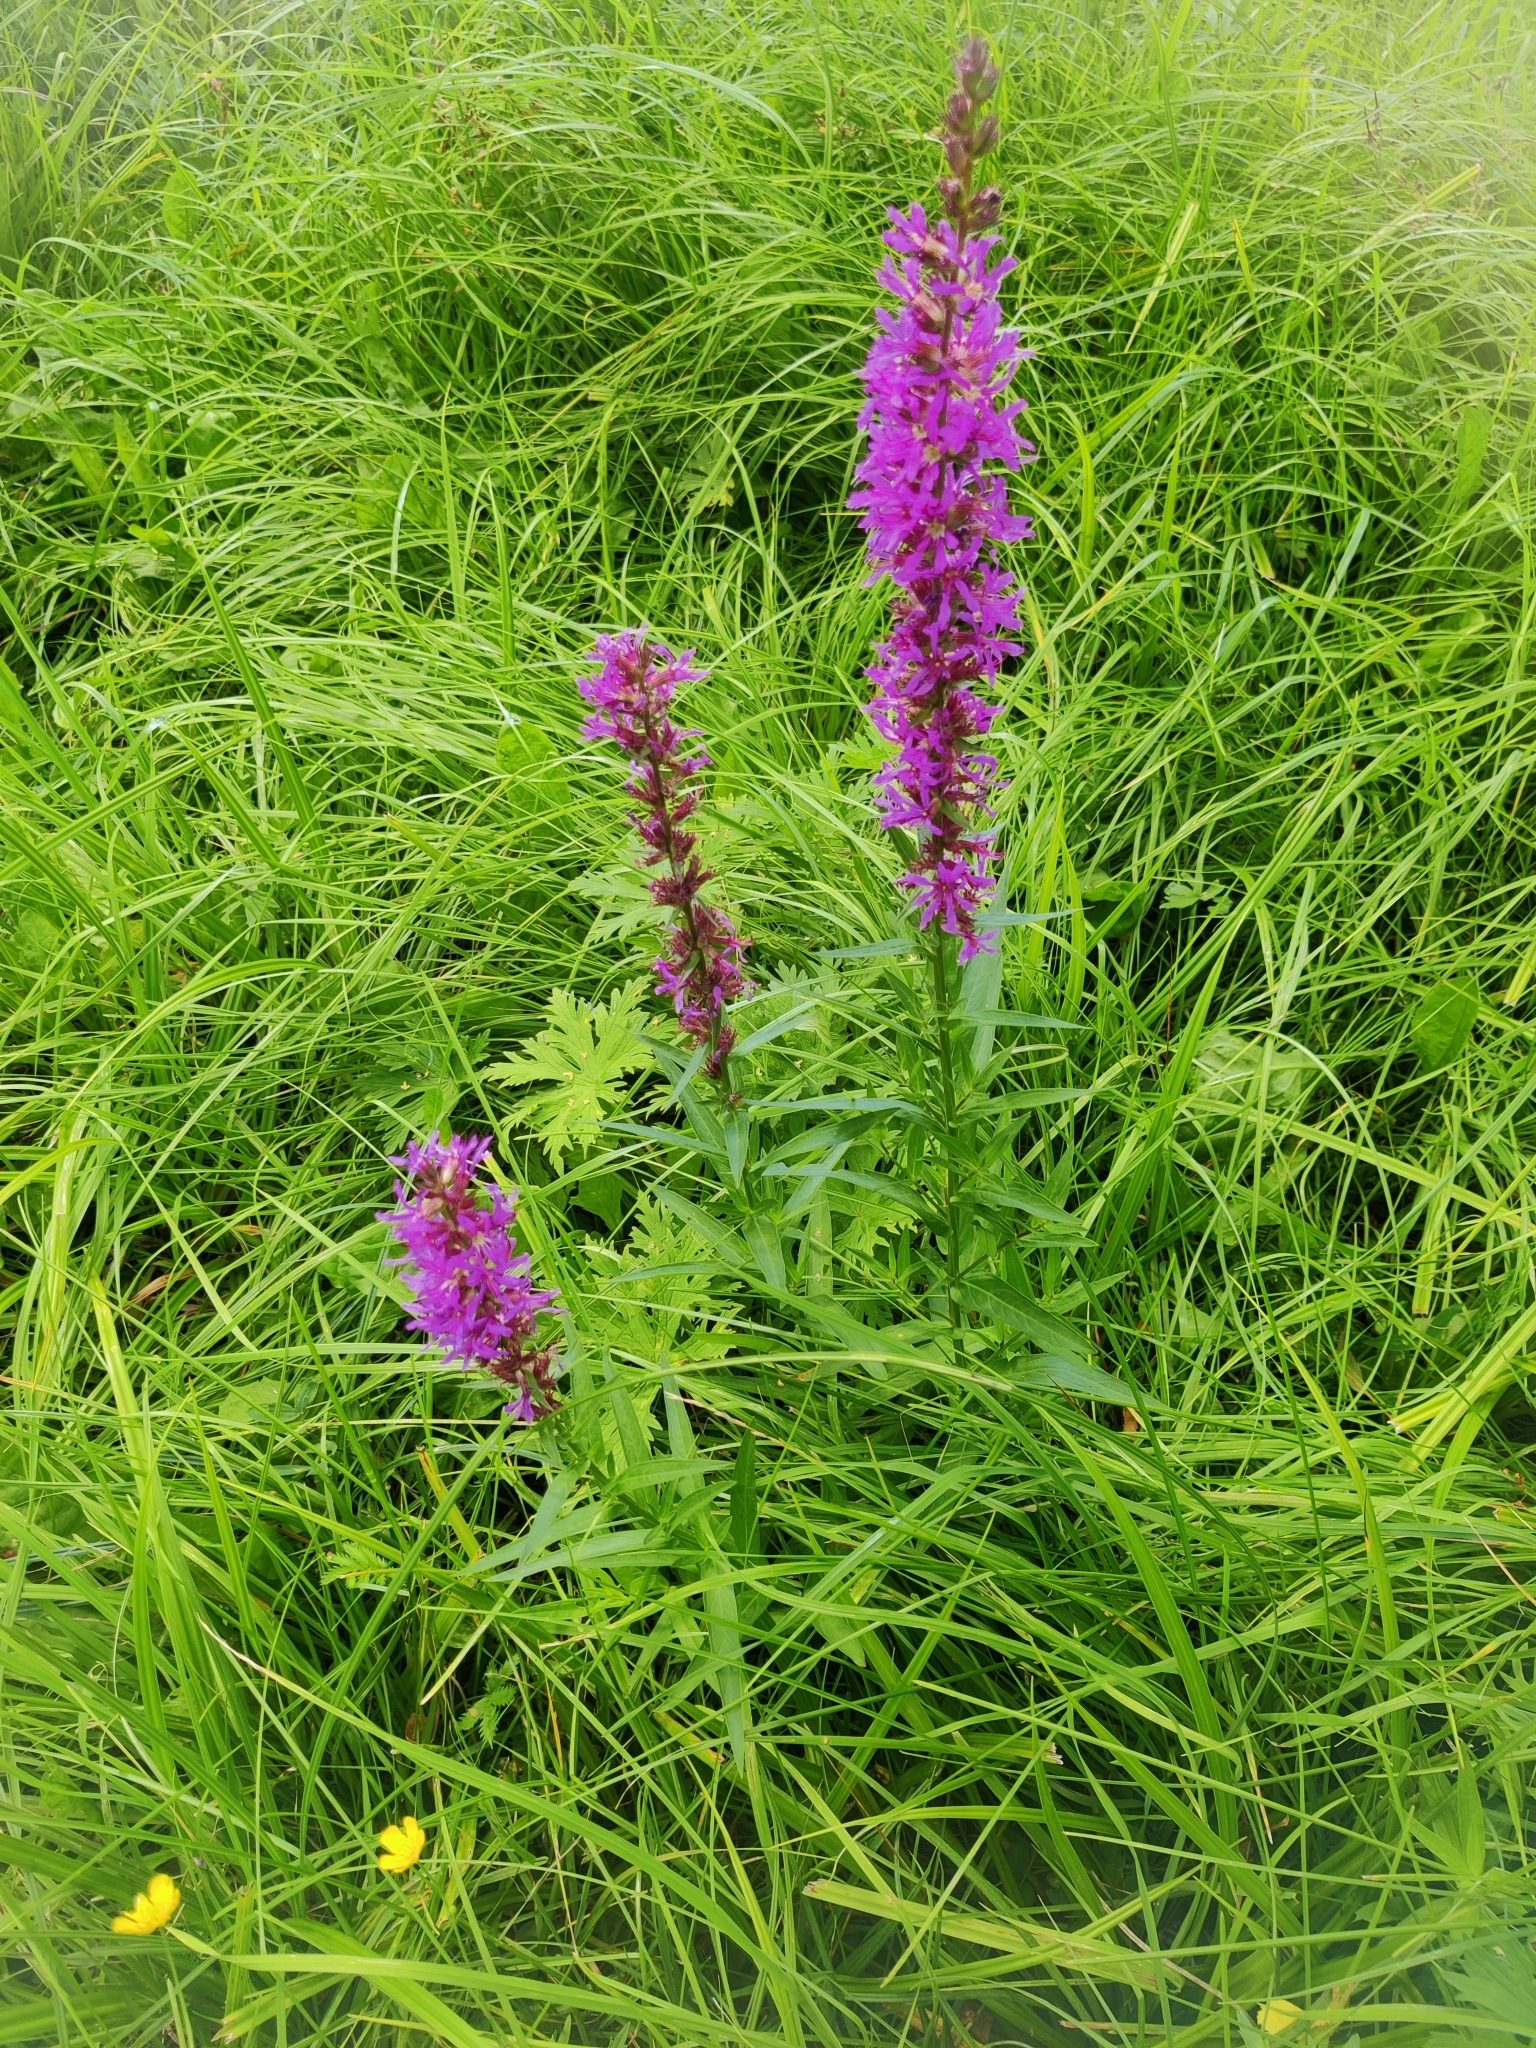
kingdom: Plantae
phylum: Tracheophyta
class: Magnoliopsida
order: Myrtales
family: Lythraceae
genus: Lythrum
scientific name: Lythrum salicaria
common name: Purple loosestrife
